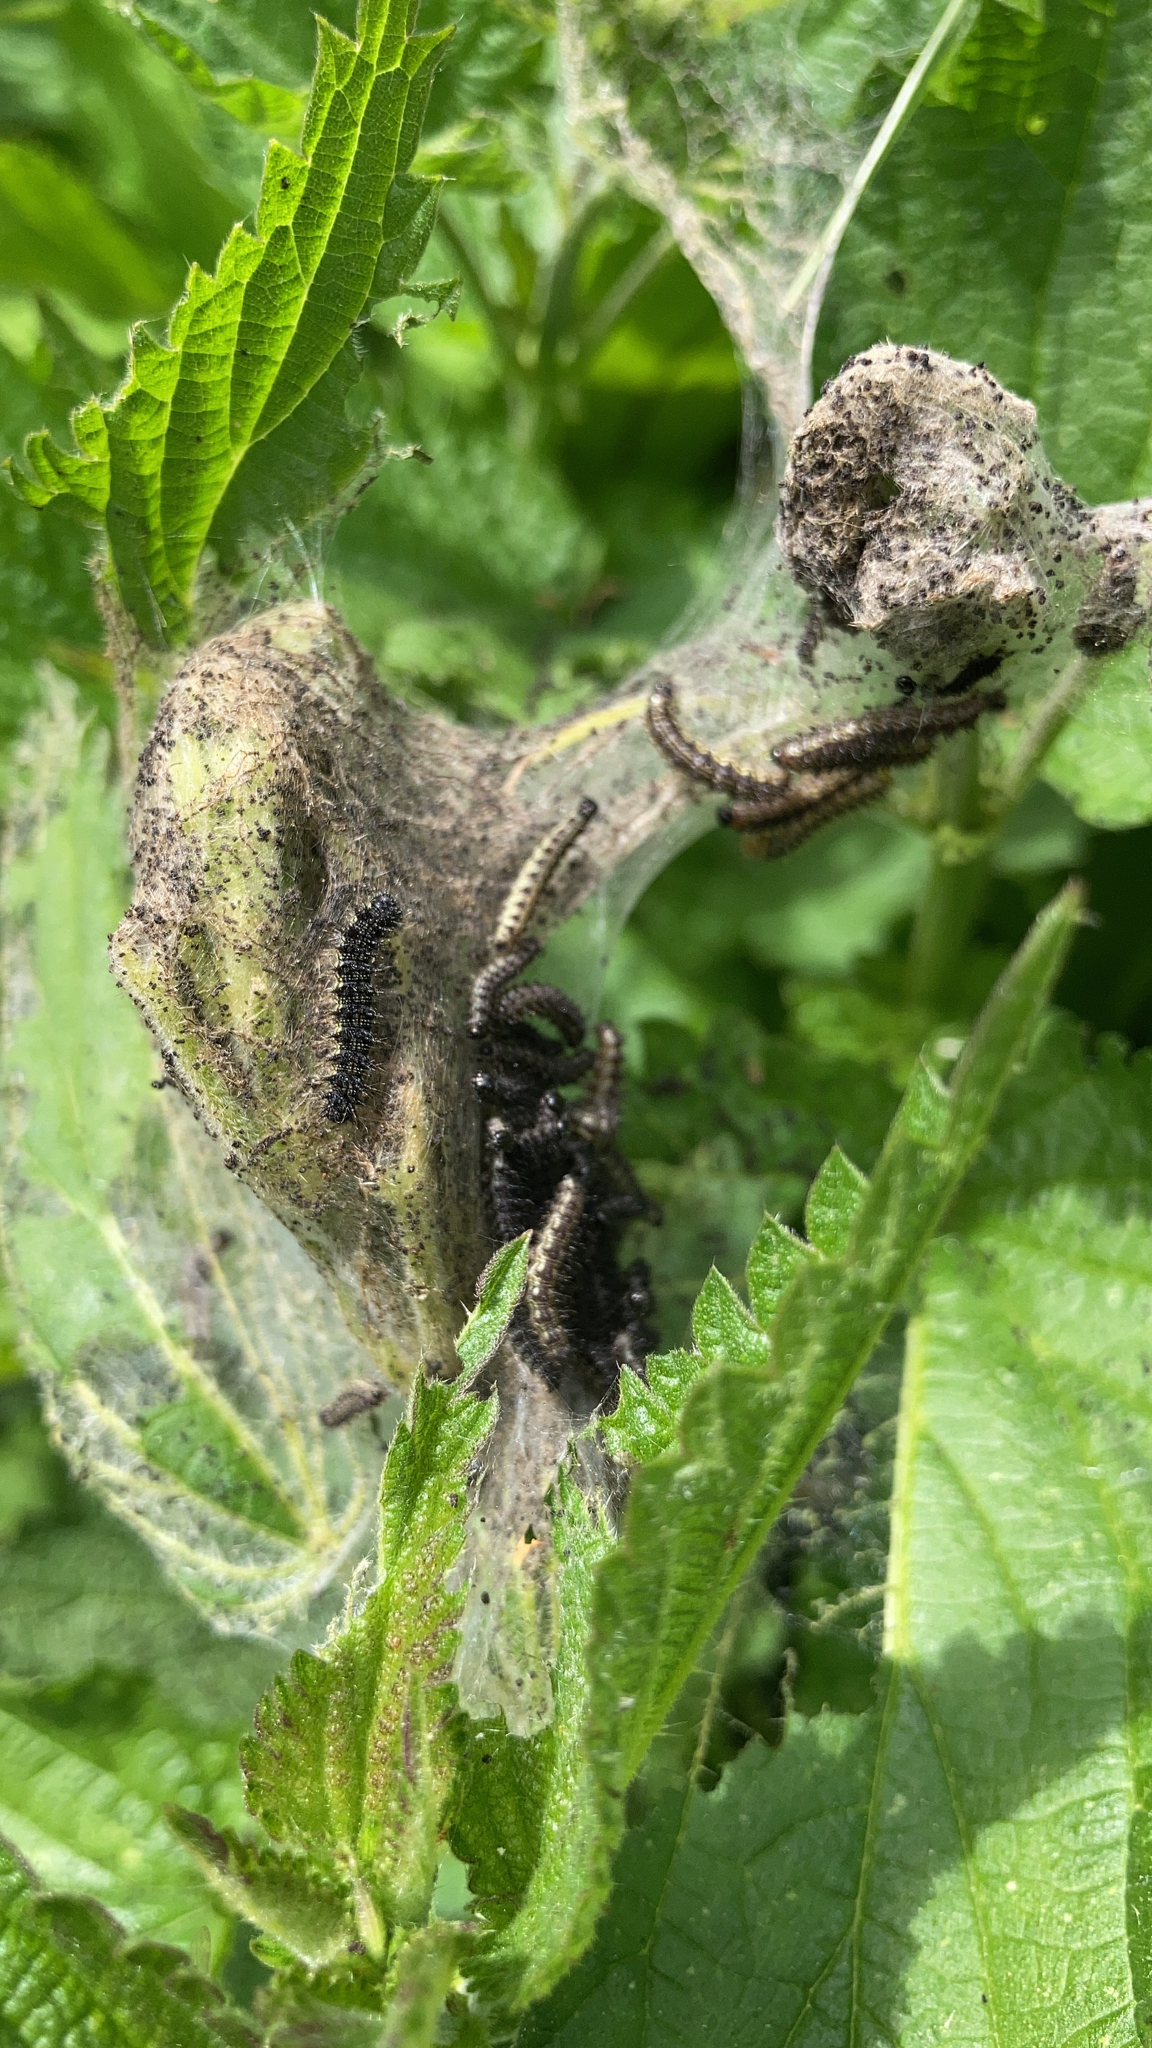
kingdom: Animalia
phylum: Arthropoda
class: Insecta
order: Lepidoptera
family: Nymphalidae
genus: Aglais
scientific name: Aglais urticae
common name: Small tortoiseshell
